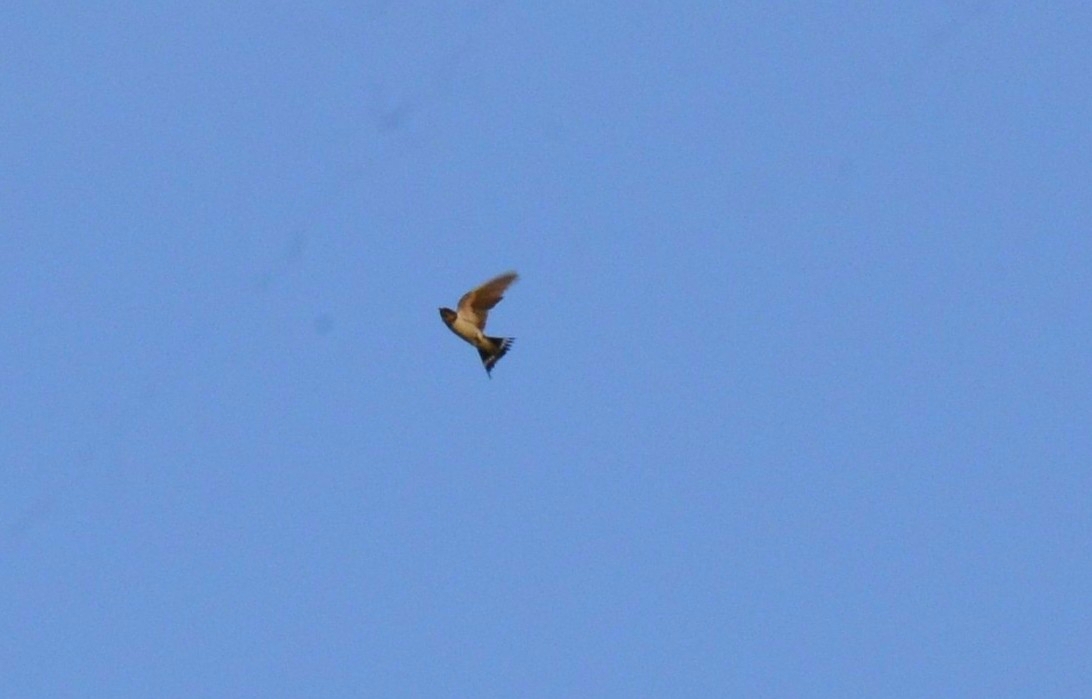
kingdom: Animalia
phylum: Chordata
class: Aves
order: Passeriformes
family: Hirundinidae
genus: Hirundo
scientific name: Hirundo rustica
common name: Barn swallow
